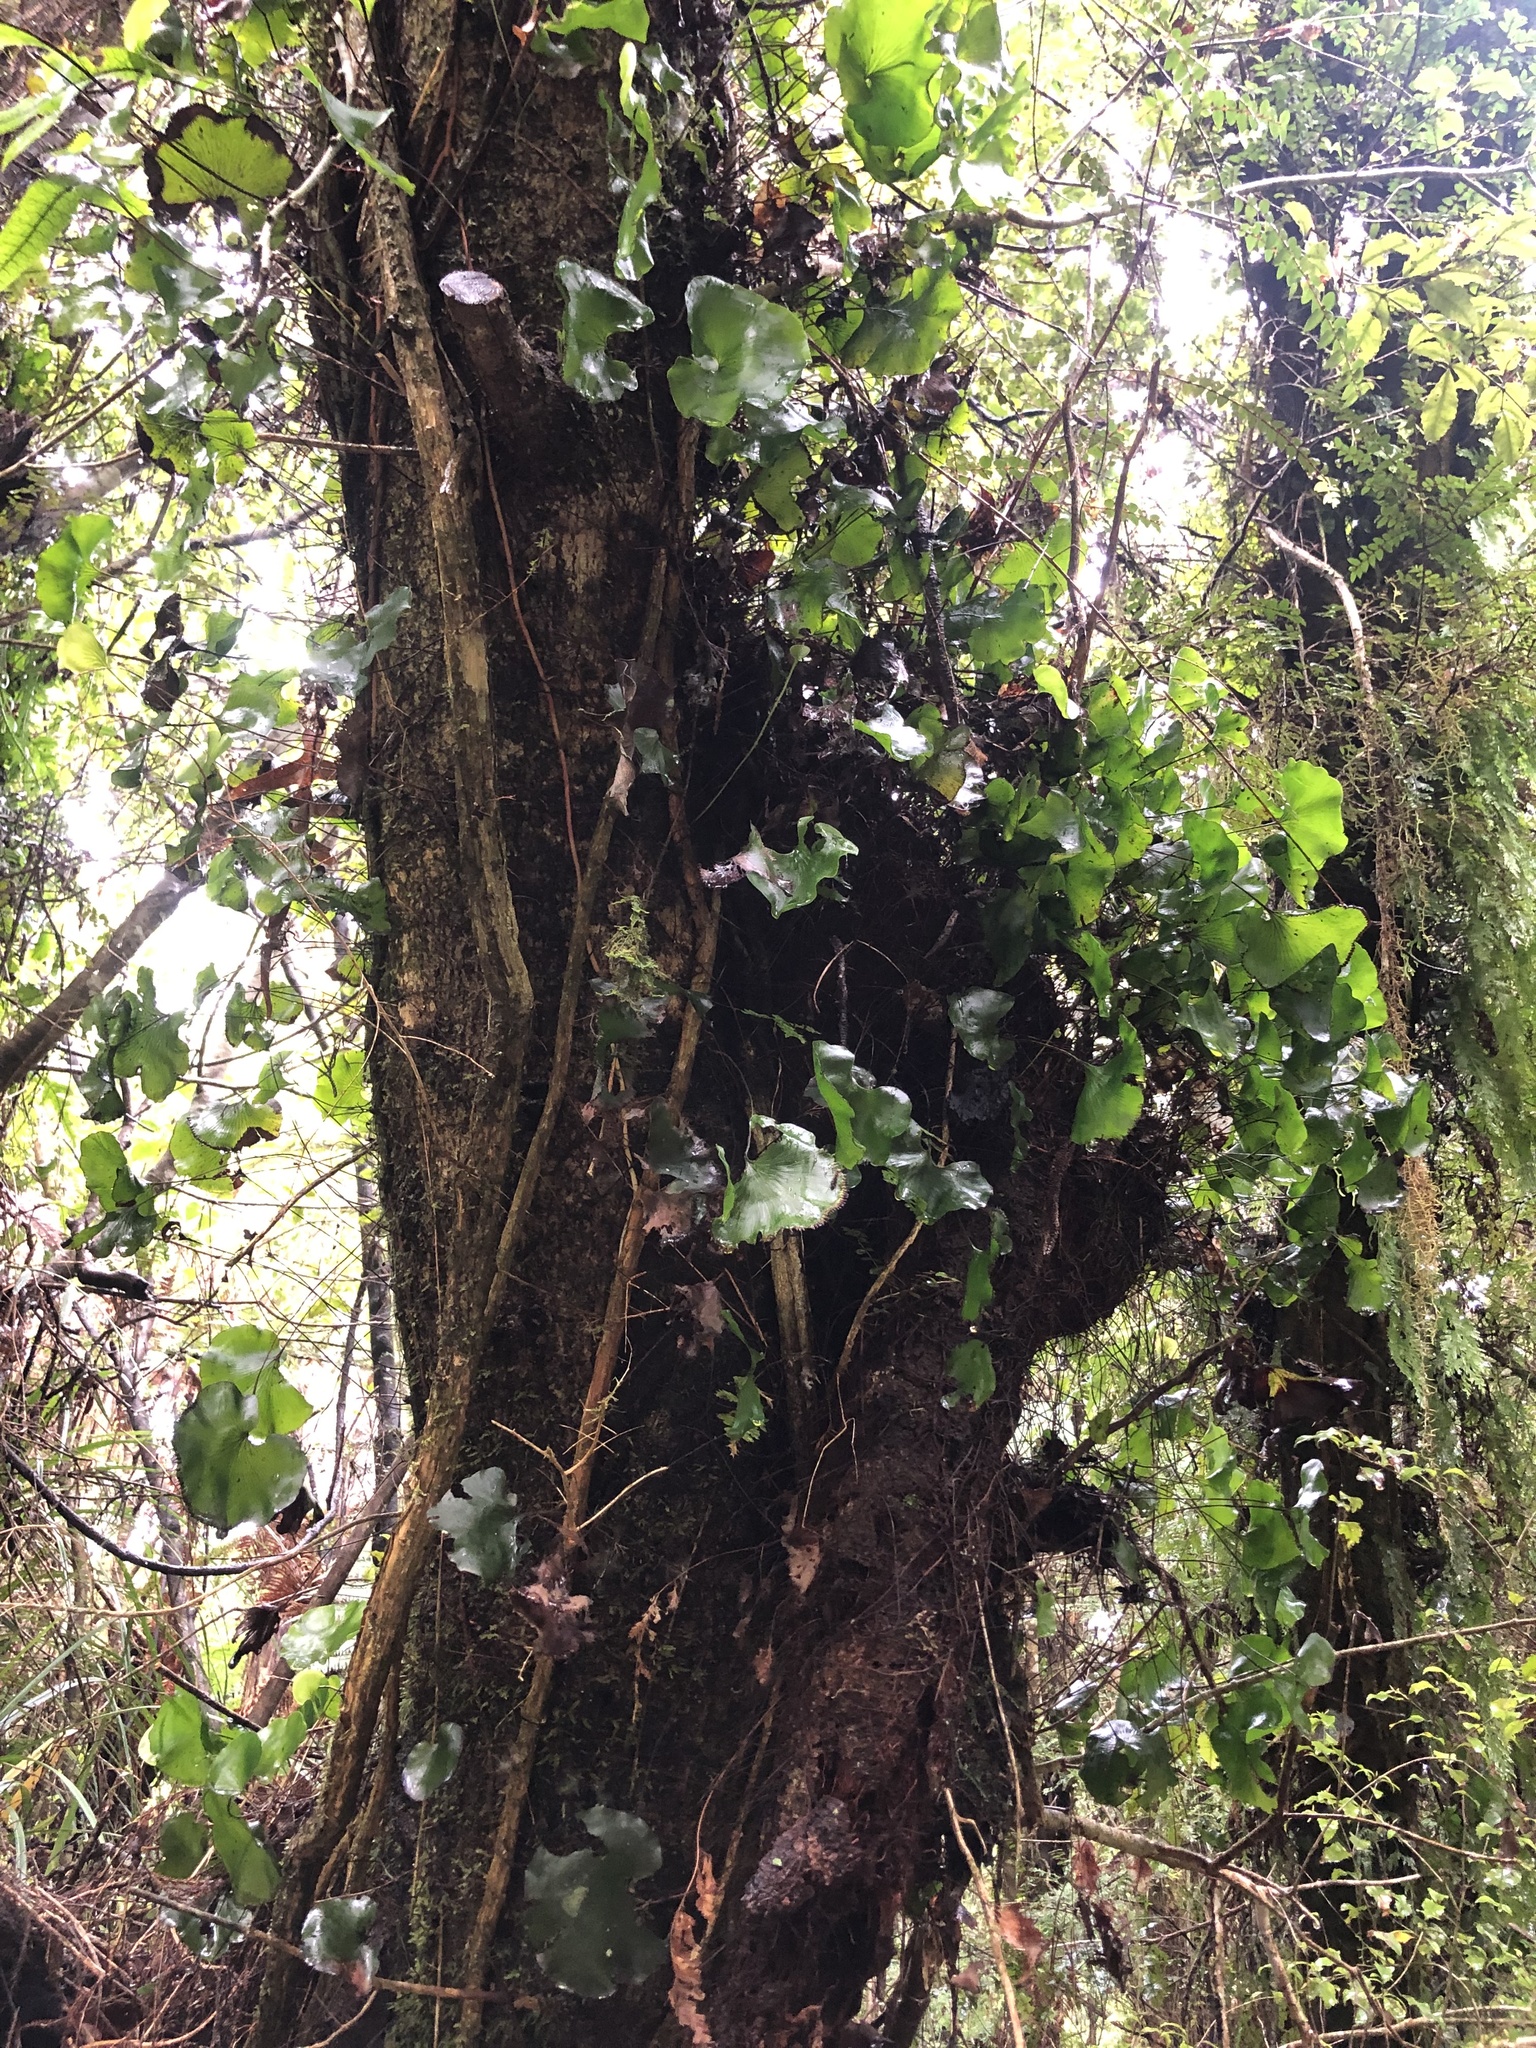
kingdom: Plantae
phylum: Tracheophyta
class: Polypodiopsida
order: Hymenophyllales
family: Hymenophyllaceae
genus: Hymenophyllum
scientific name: Hymenophyllum nephrophyllum
